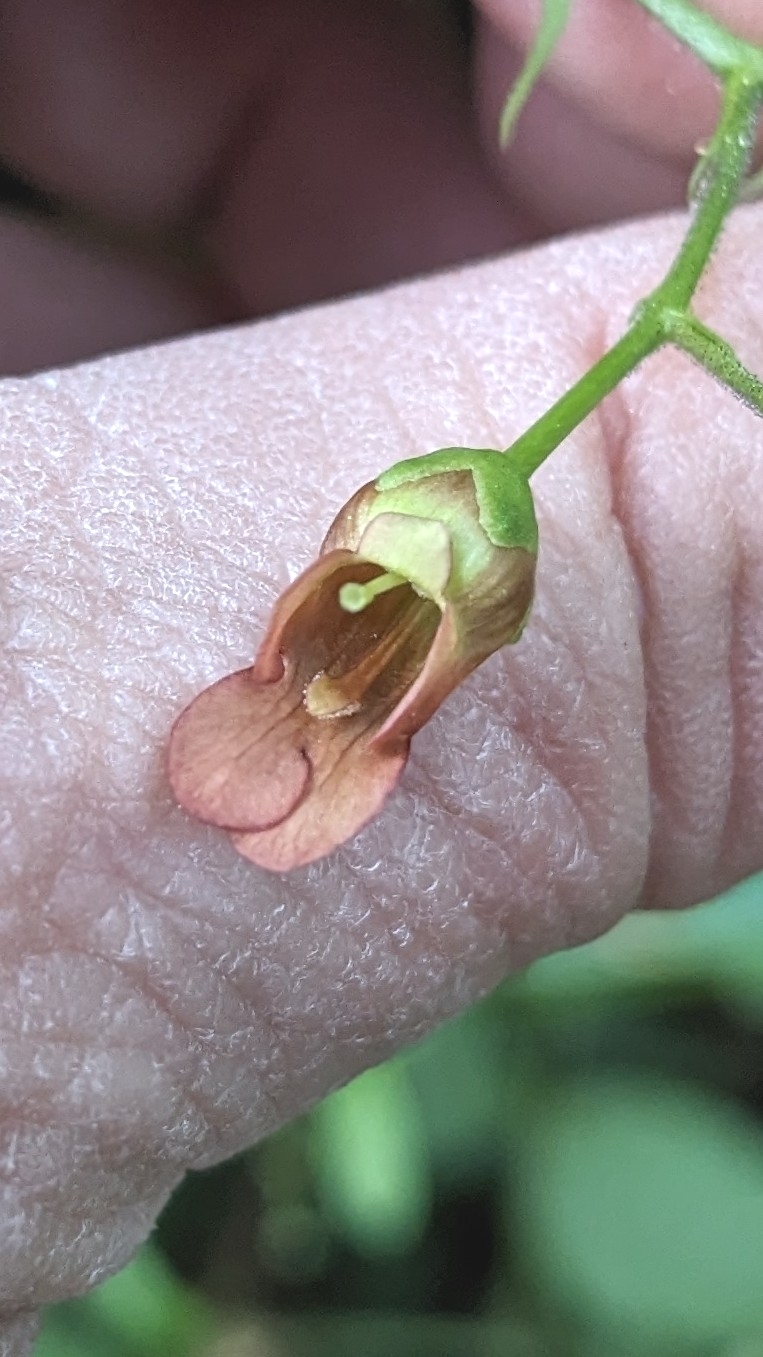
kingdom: Plantae
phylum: Tracheophyta
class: Magnoliopsida
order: Lamiales
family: Scrophulariaceae
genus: Scrophularia
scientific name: Scrophularia californica
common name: California figwort
